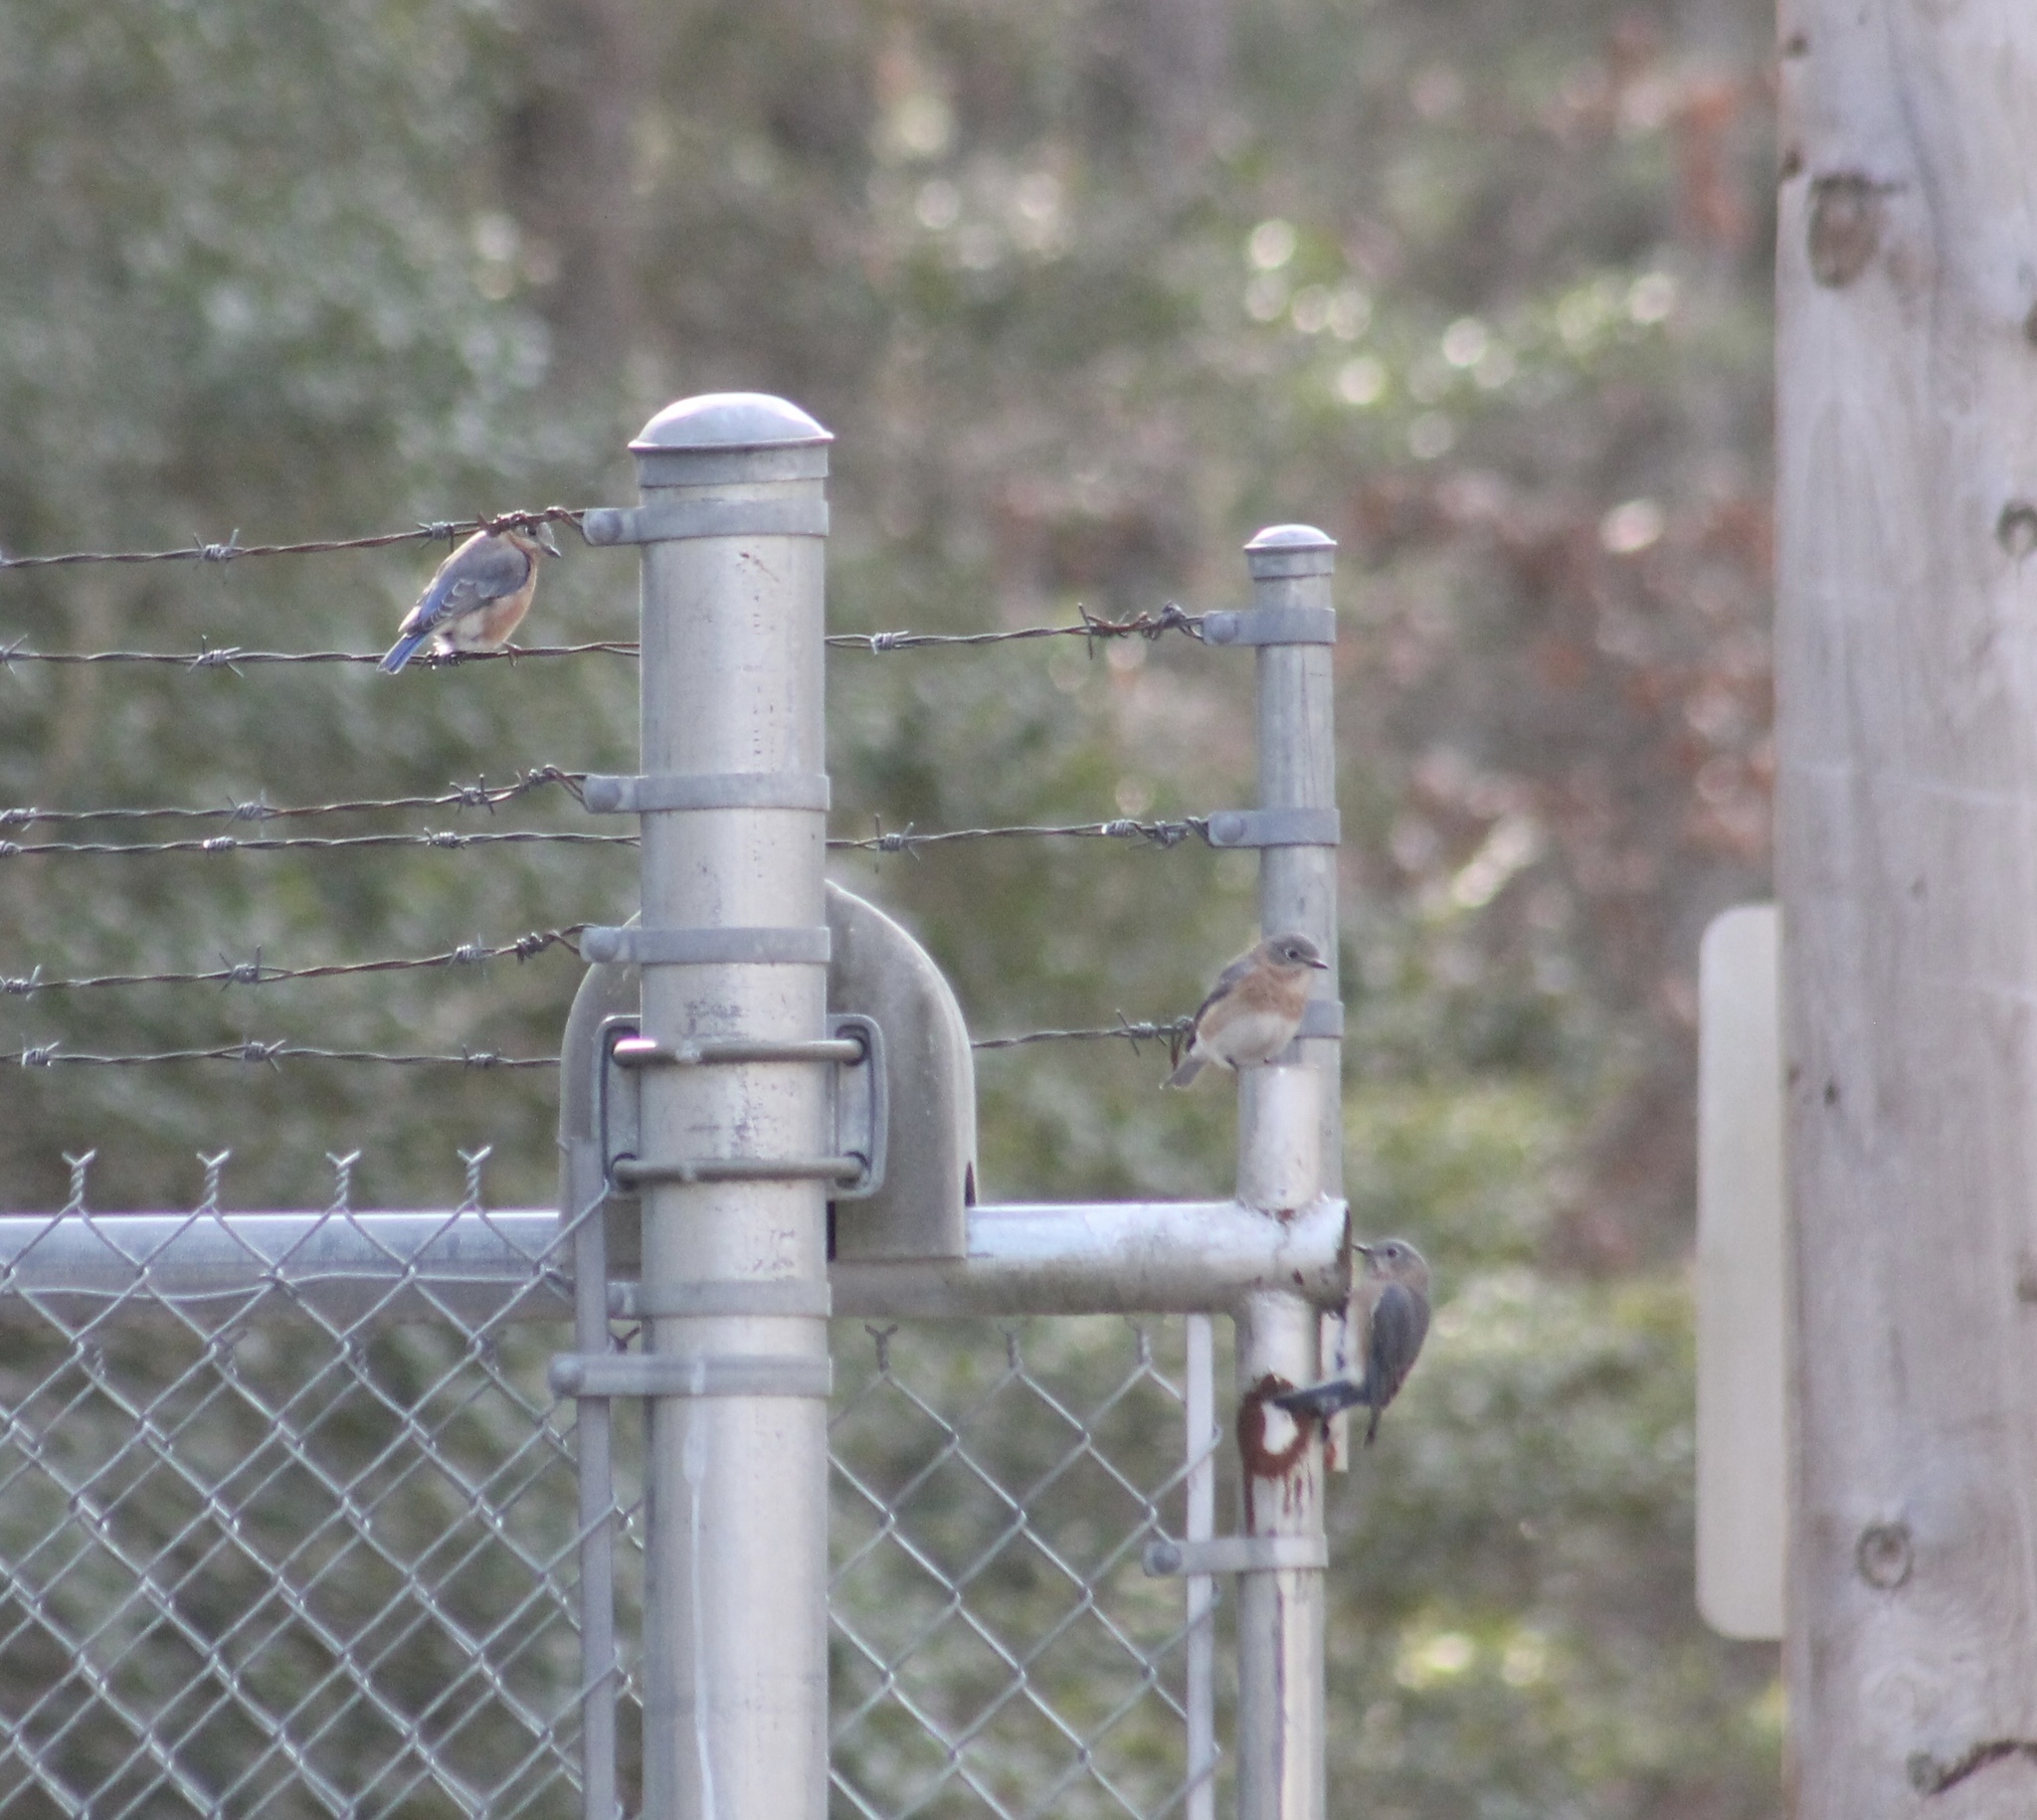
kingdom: Animalia
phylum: Chordata
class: Aves
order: Passeriformes
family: Turdidae
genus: Sialia
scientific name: Sialia sialis
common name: Eastern bluebird
